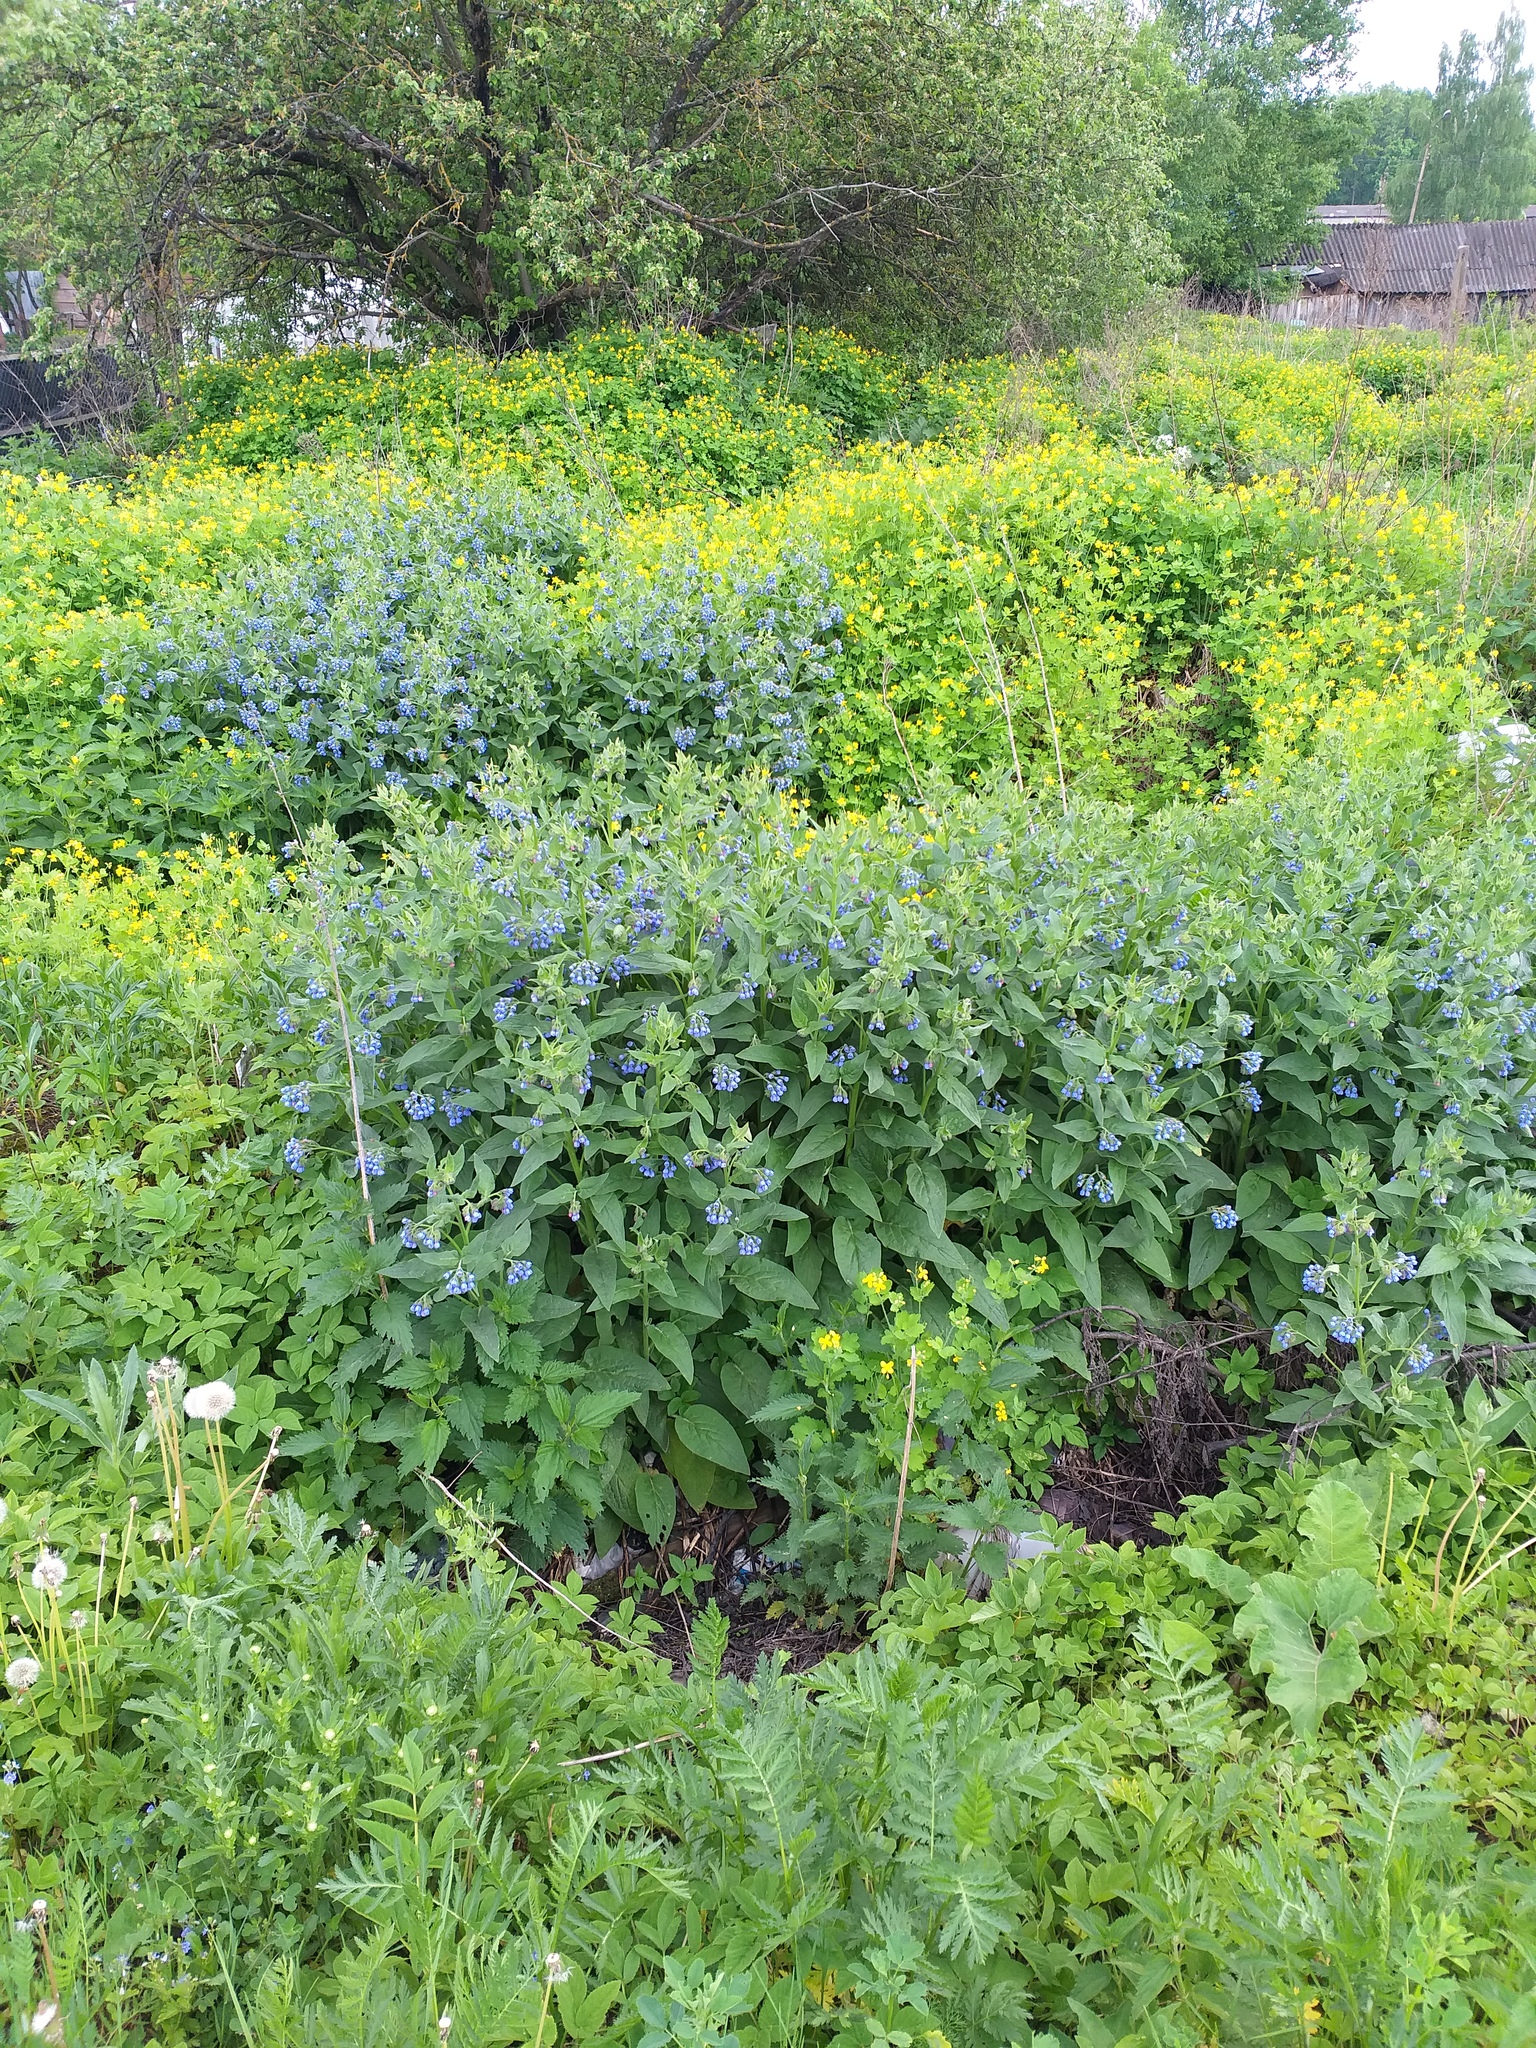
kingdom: Plantae
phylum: Tracheophyta
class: Magnoliopsida
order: Boraginales
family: Boraginaceae
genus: Symphytum
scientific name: Symphytum caucasicum
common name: Caucasian comfrey
